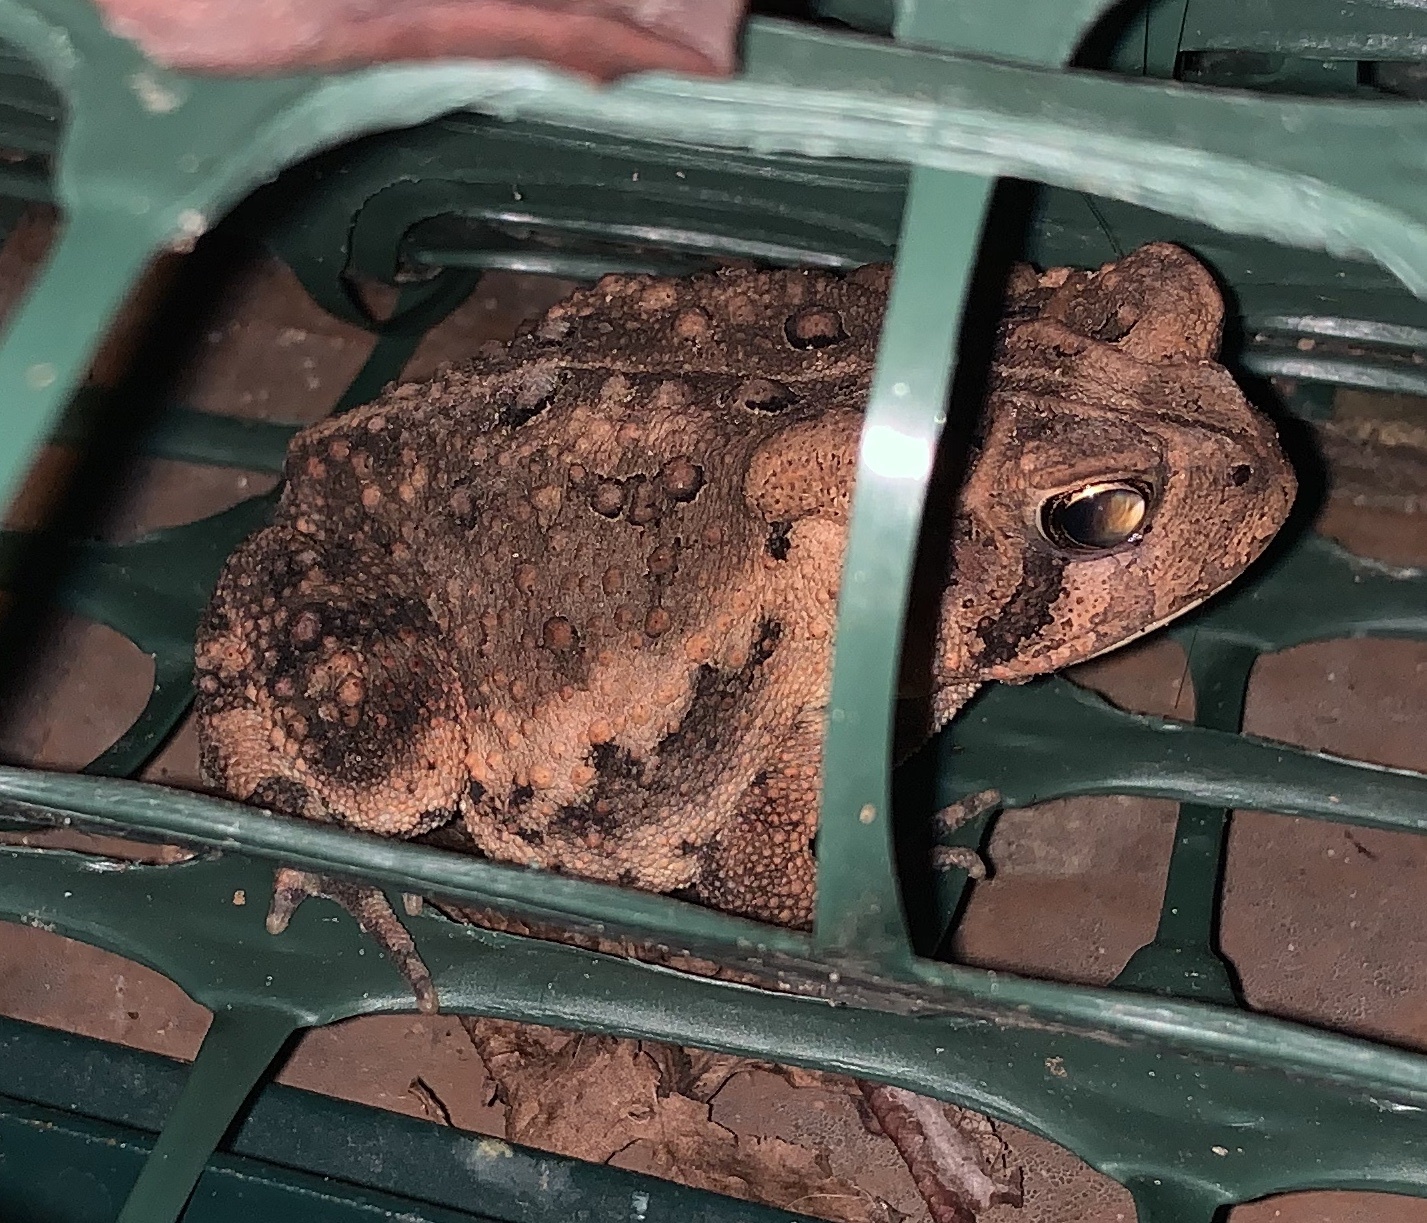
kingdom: Animalia
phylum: Chordata
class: Amphibia
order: Anura
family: Bufonidae
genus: Anaxyrus
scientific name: Anaxyrus americanus
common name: American toad
